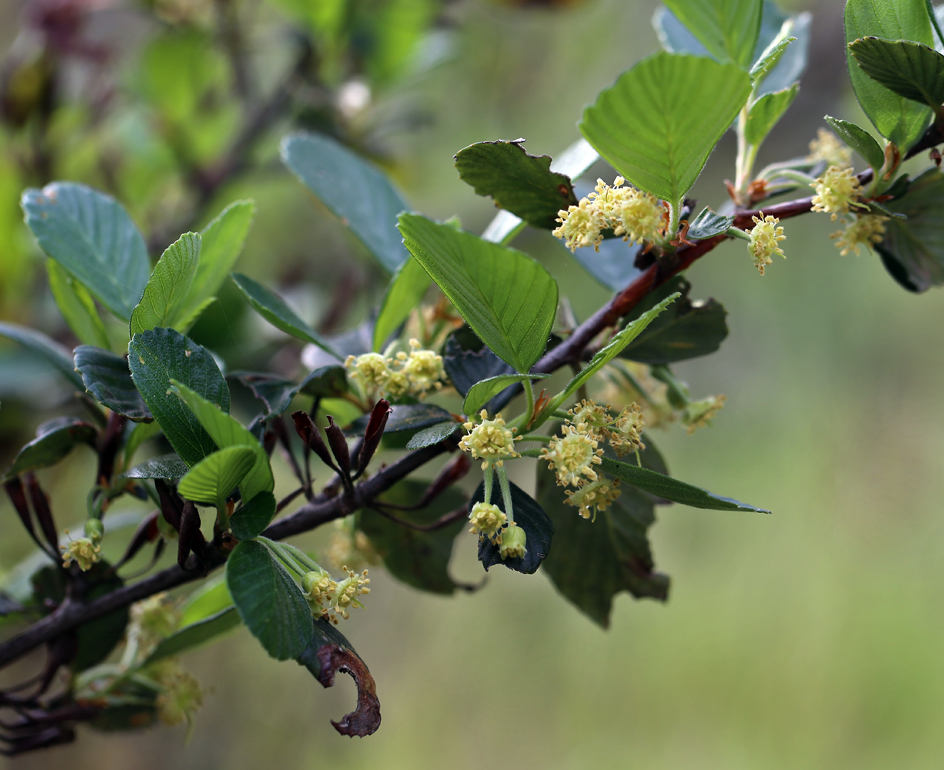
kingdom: Plantae
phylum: Tracheophyta
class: Magnoliopsida
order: Rosales
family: Rosaceae
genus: Cercocarpus
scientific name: Cercocarpus betuloides
